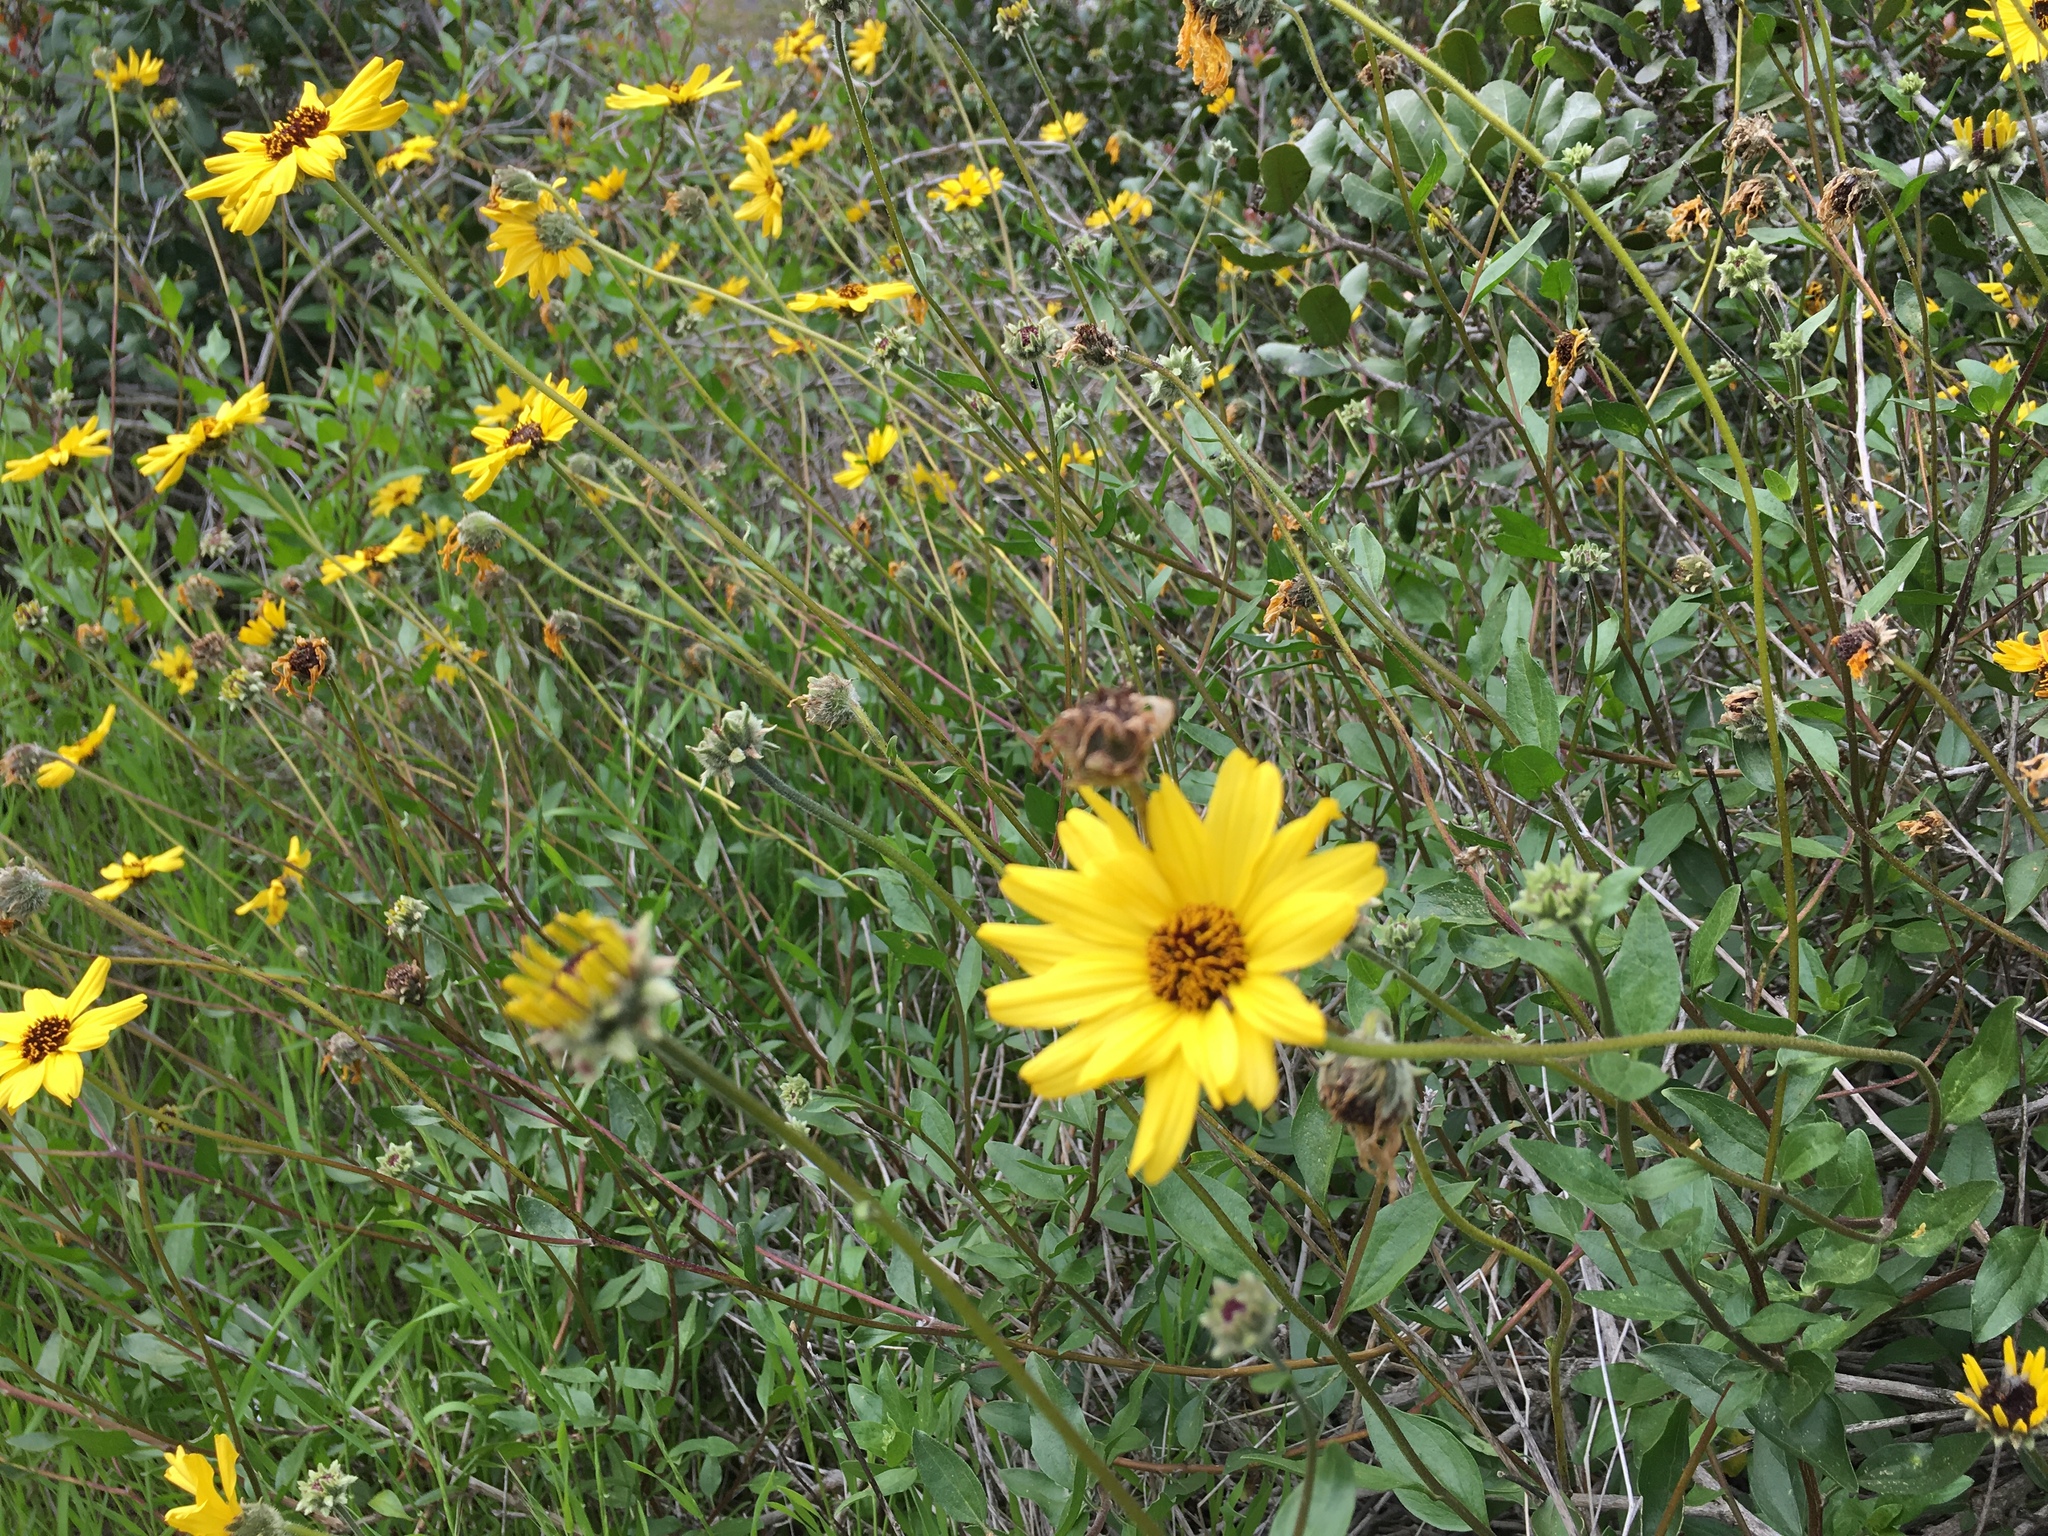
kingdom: Plantae
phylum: Tracheophyta
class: Magnoliopsida
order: Asterales
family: Asteraceae
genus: Encelia
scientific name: Encelia californica
